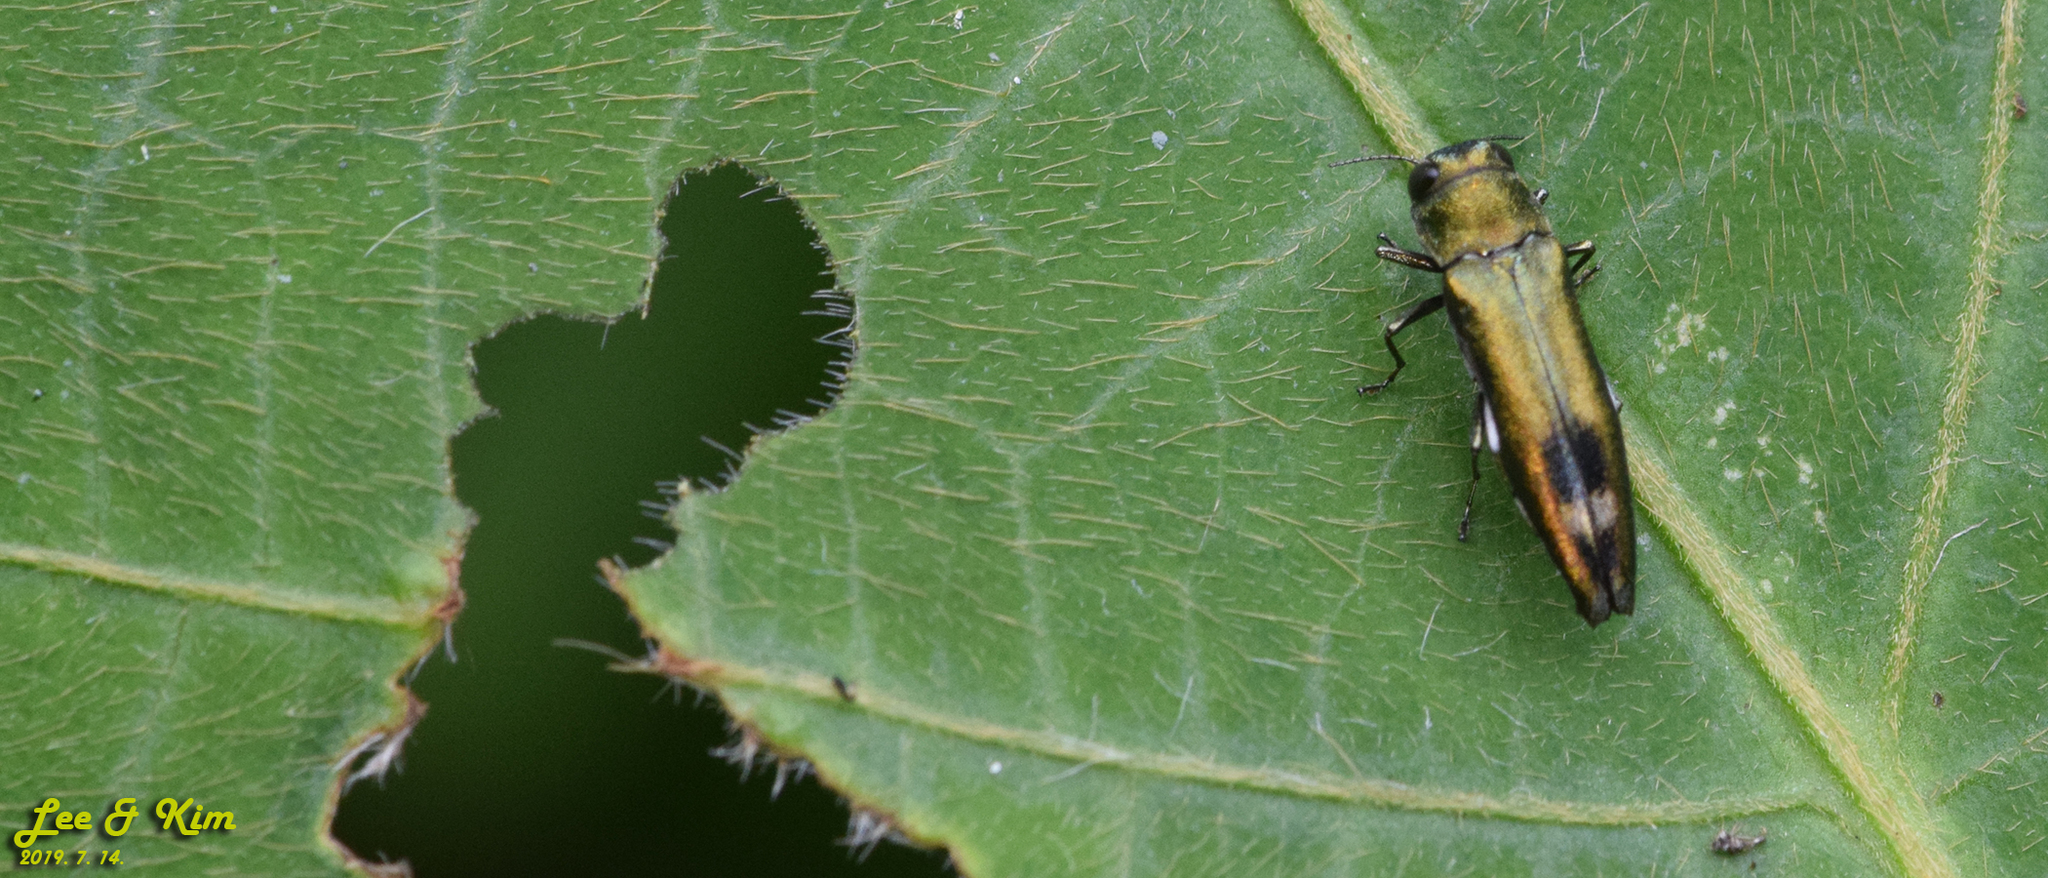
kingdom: Animalia
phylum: Arthropoda
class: Insecta
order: Coleoptera
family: Buprestidae
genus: Agrilus
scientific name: Agrilus chujoi
